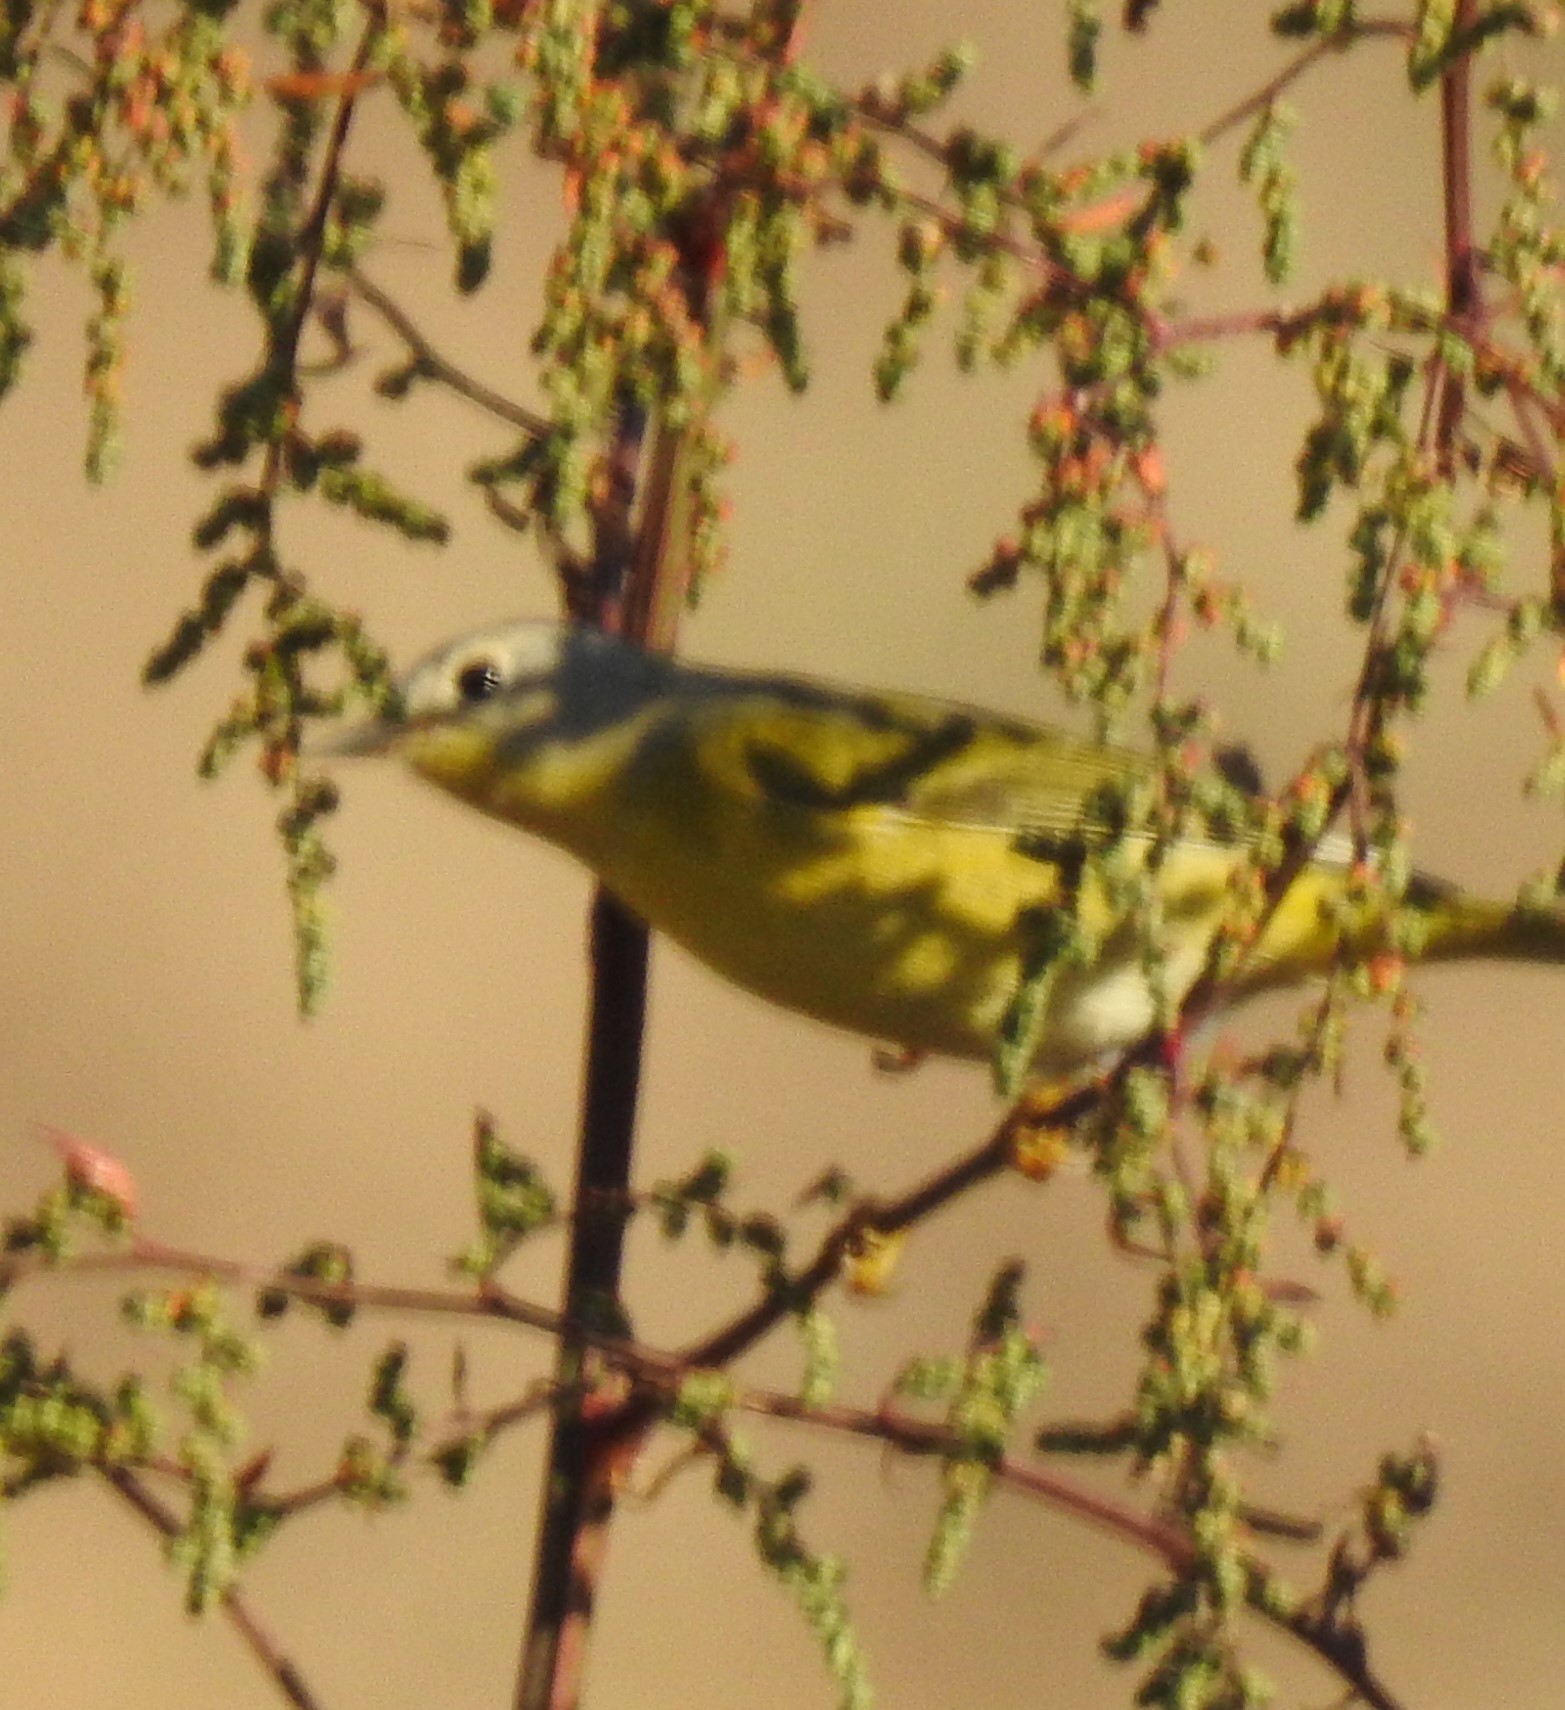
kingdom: Animalia
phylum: Chordata
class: Aves
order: Passeriformes
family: Parulidae
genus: Leiothlypis
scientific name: Leiothlypis ruficapilla
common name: Nashville warbler
